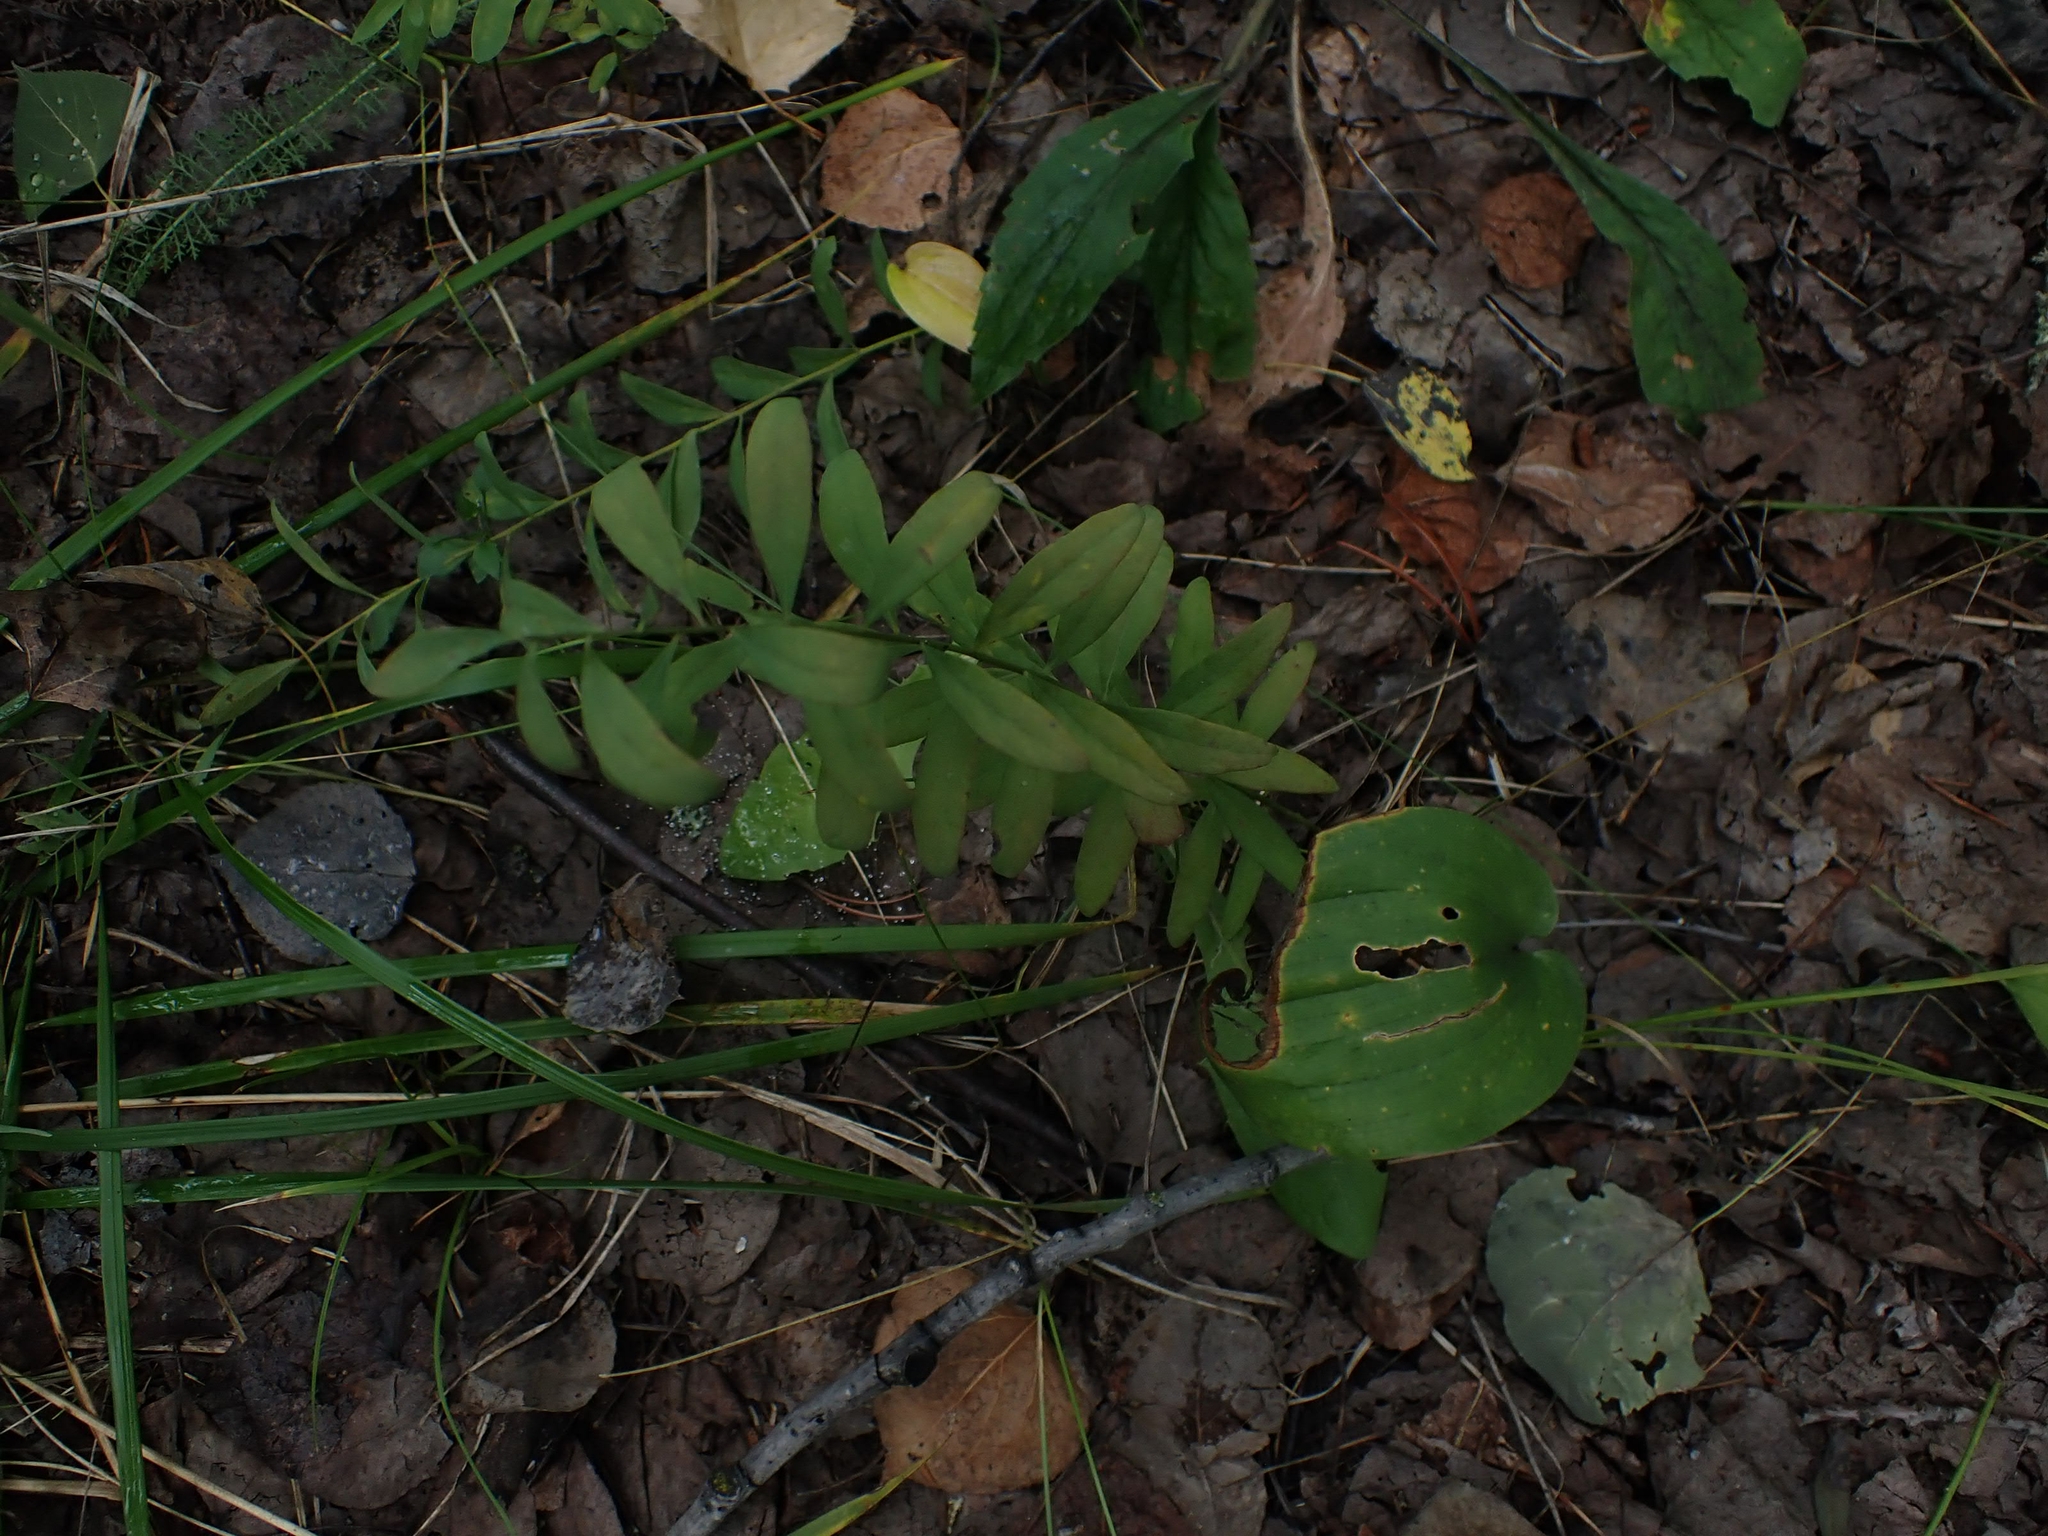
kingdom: Plantae
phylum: Tracheophyta
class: Magnoliopsida
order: Santalales
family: Comandraceae
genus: Comandra
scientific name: Comandra umbellata
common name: Bastard toadflax
